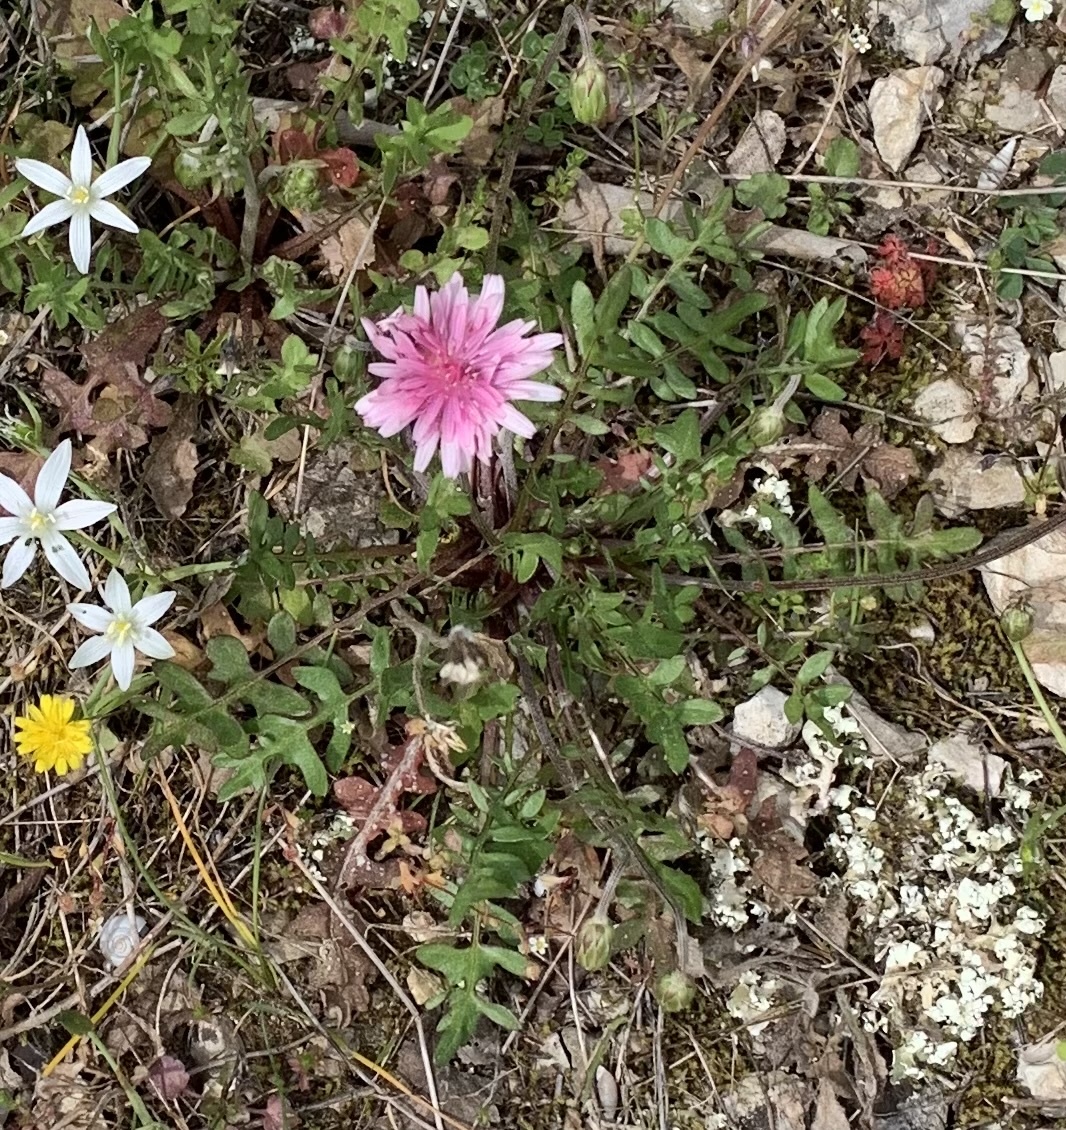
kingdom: Plantae
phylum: Tracheophyta
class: Magnoliopsida
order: Asterales
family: Asteraceae
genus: Crepis
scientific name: Crepis rubra
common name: Pink hawk's-beard
